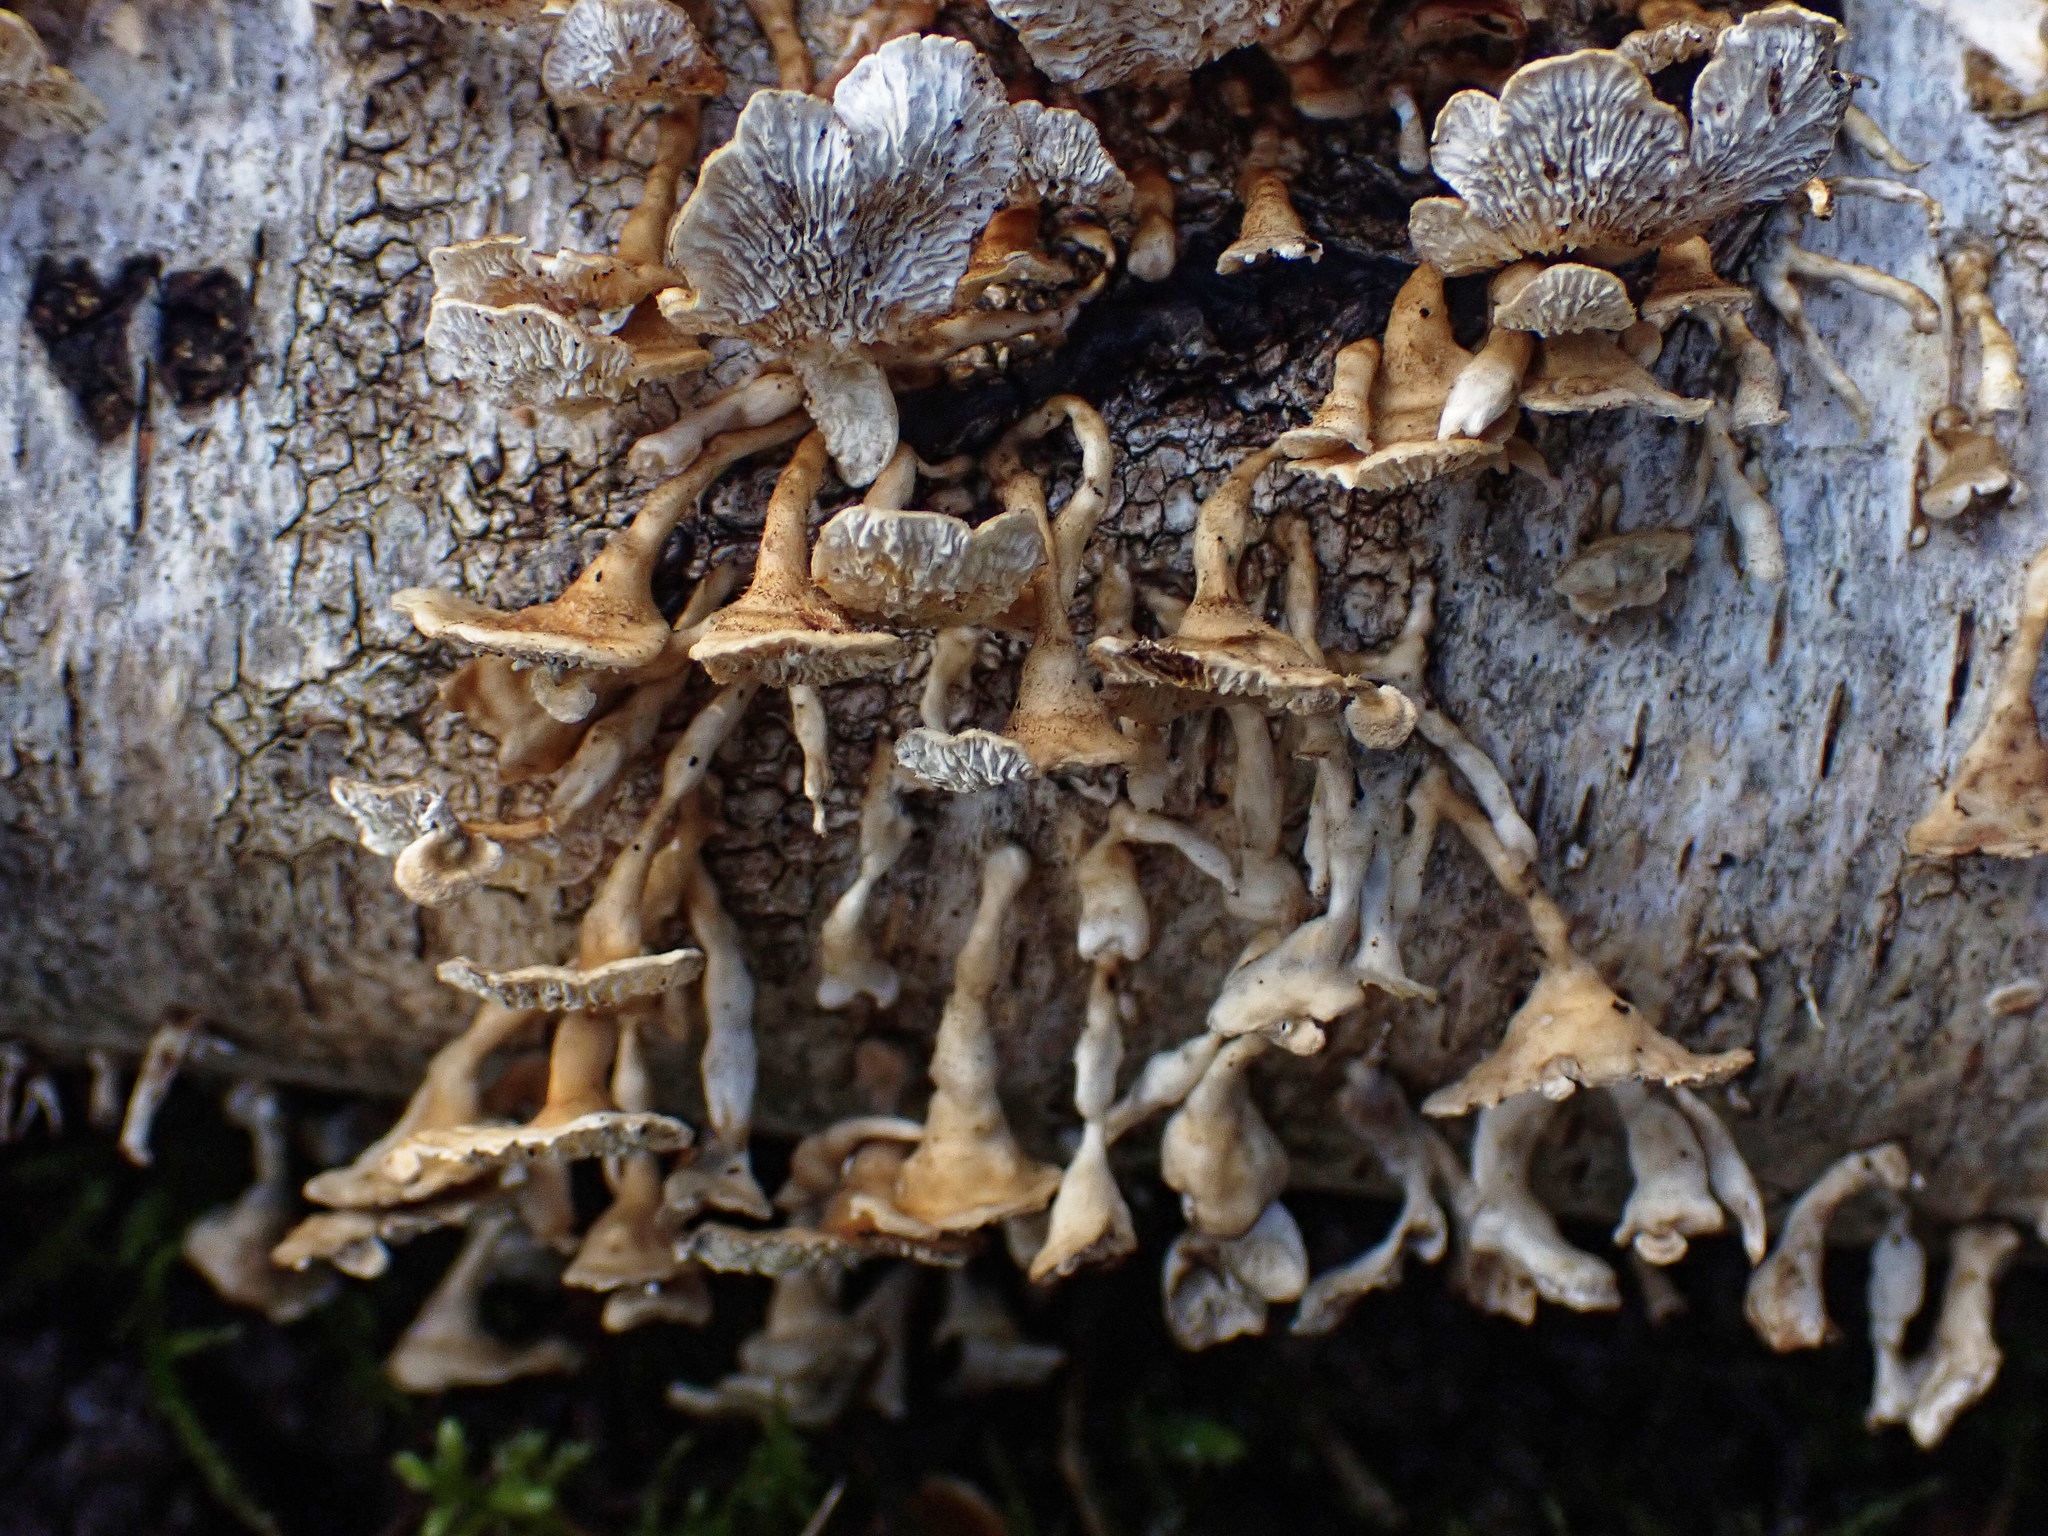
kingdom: Fungi
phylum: Basidiomycota
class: Agaricomycetes
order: Amylocorticiales
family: Amylocorticiaceae
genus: Plicaturopsis
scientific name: Plicaturopsis crispa
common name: Crimped gill
